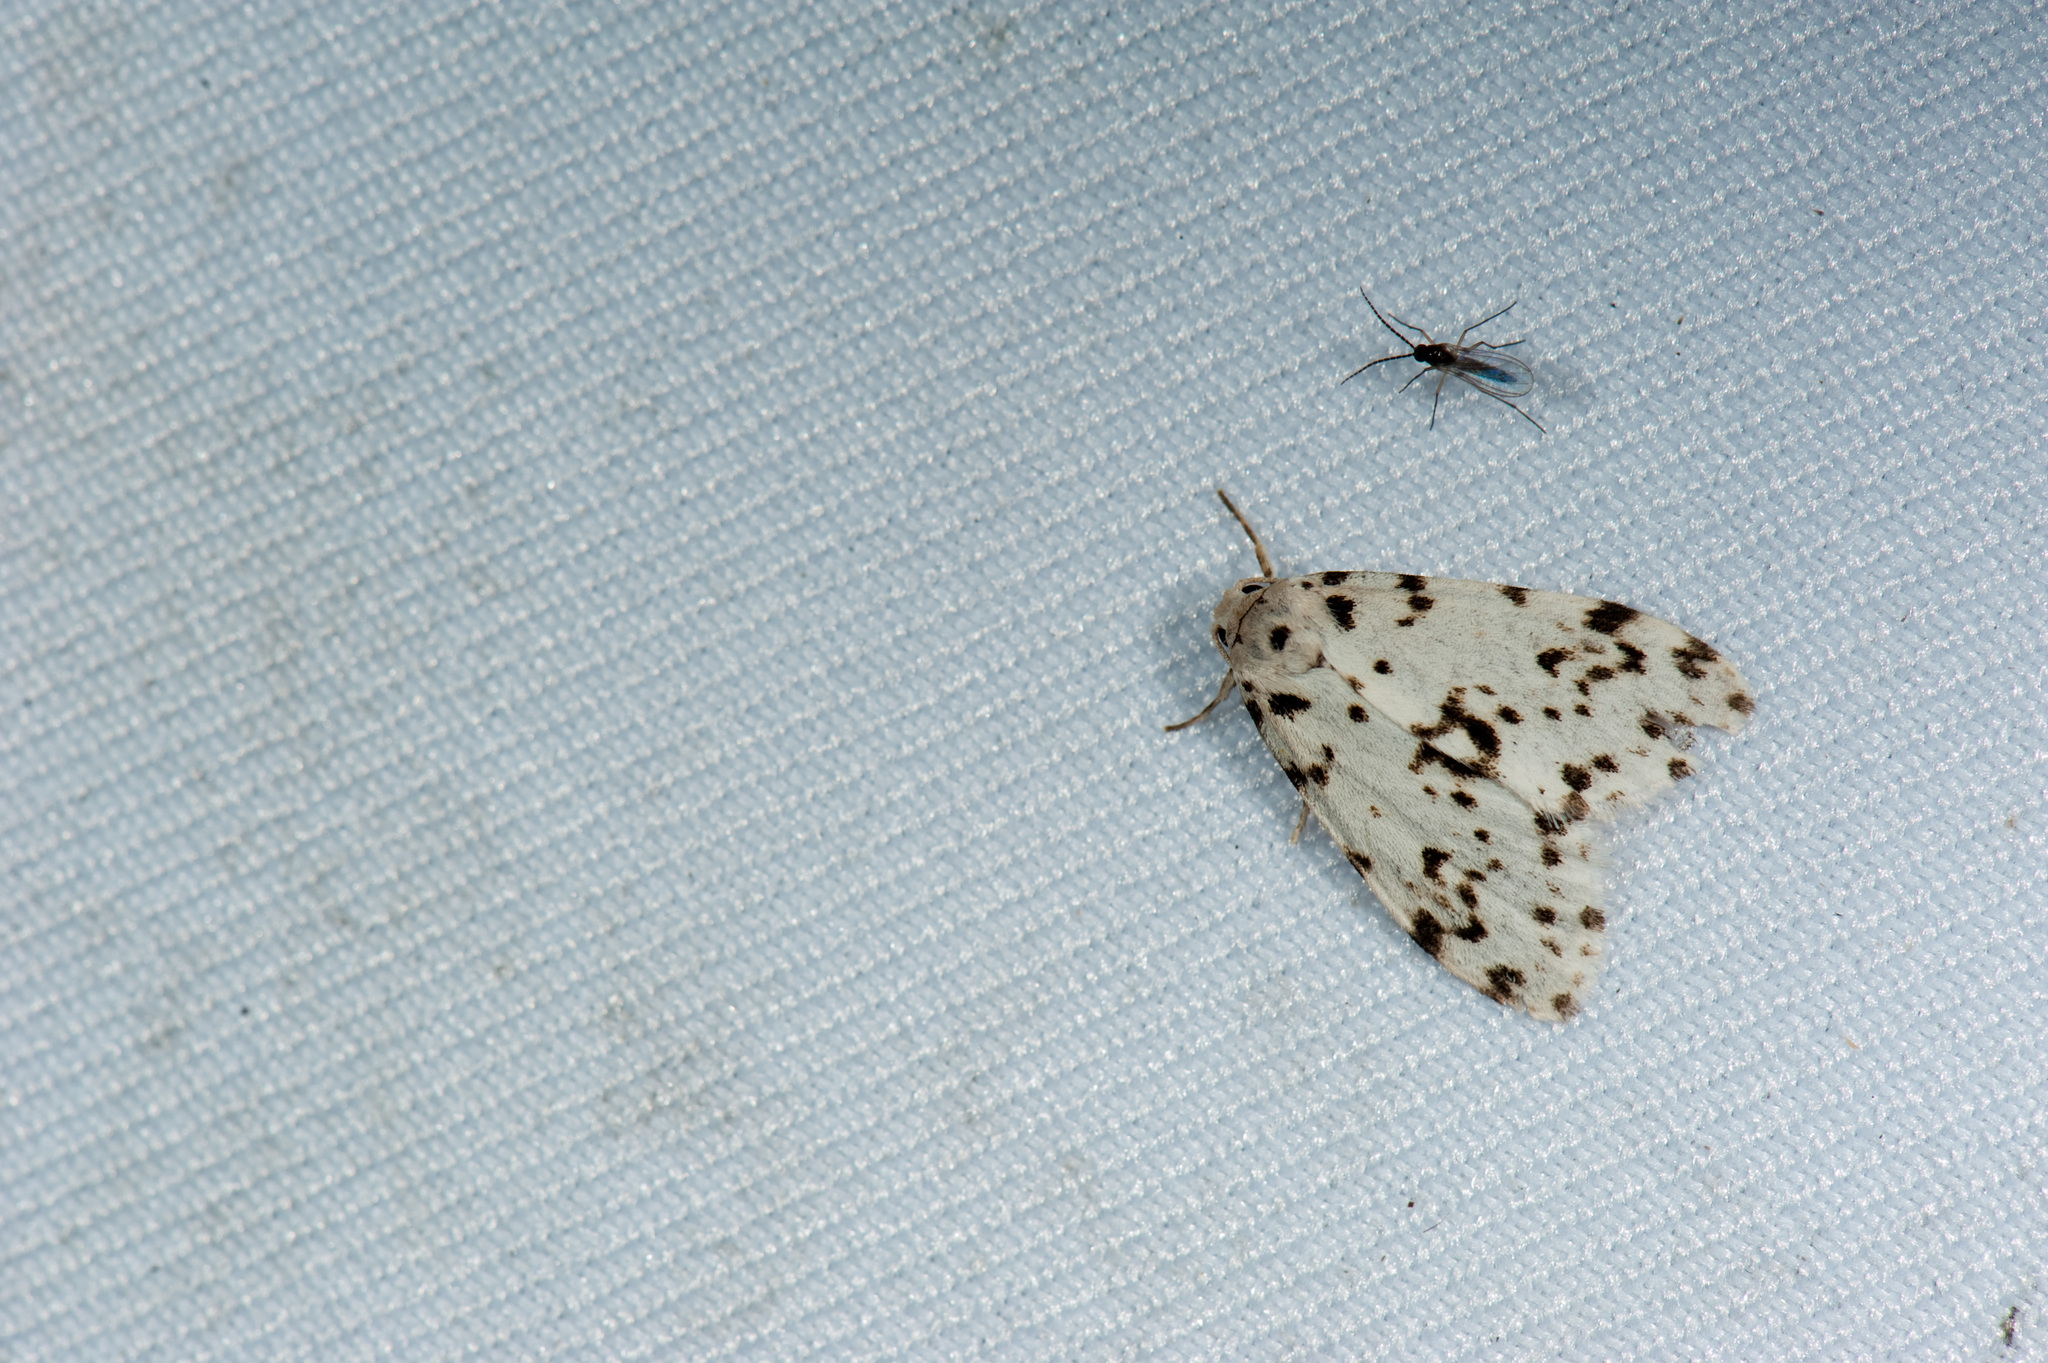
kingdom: Animalia
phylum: Arthropoda
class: Insecta
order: Lepidoptera
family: Erebidae
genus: Siccia
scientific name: Siccia Aemene taiwana
